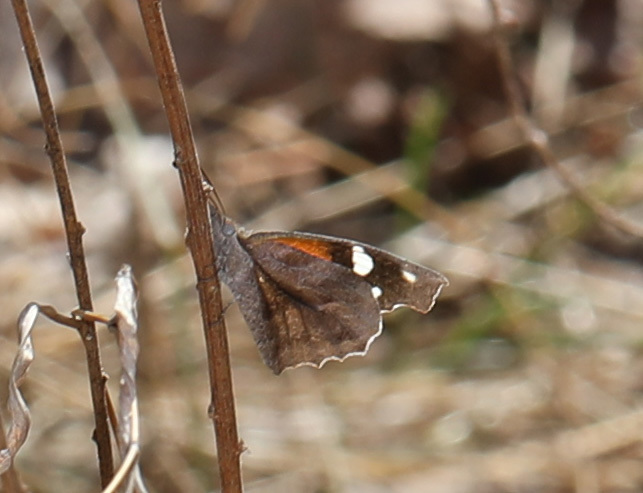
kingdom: Animalia
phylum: Arthropoda
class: Insecta
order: Lepidoptera
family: Nymphalidae
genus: Libytheana
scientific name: Libytheana carinenta
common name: American snout
